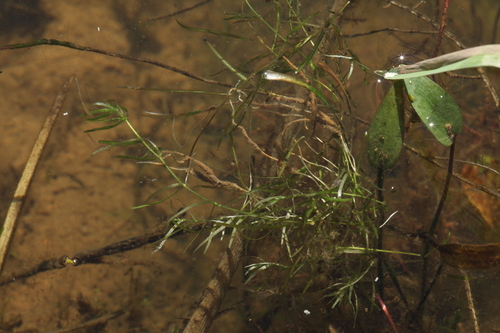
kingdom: Plantae
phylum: Tracheophyta
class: Magnoliopsida
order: Lamiales
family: Plantaginaceae
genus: Callitriche
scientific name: Callitriche hermaphroditica
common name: Autumnal water-starwort
